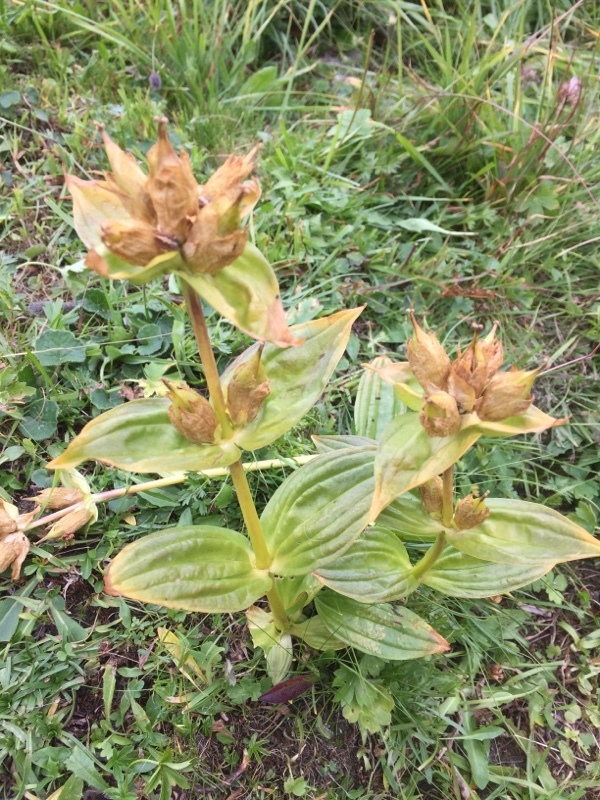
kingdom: Plantae
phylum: Tracheophyta
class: Magnoliopsida
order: Gentianales
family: Gentianaceae
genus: Gentiana
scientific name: Gentiana punctata
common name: Spotted gentian
